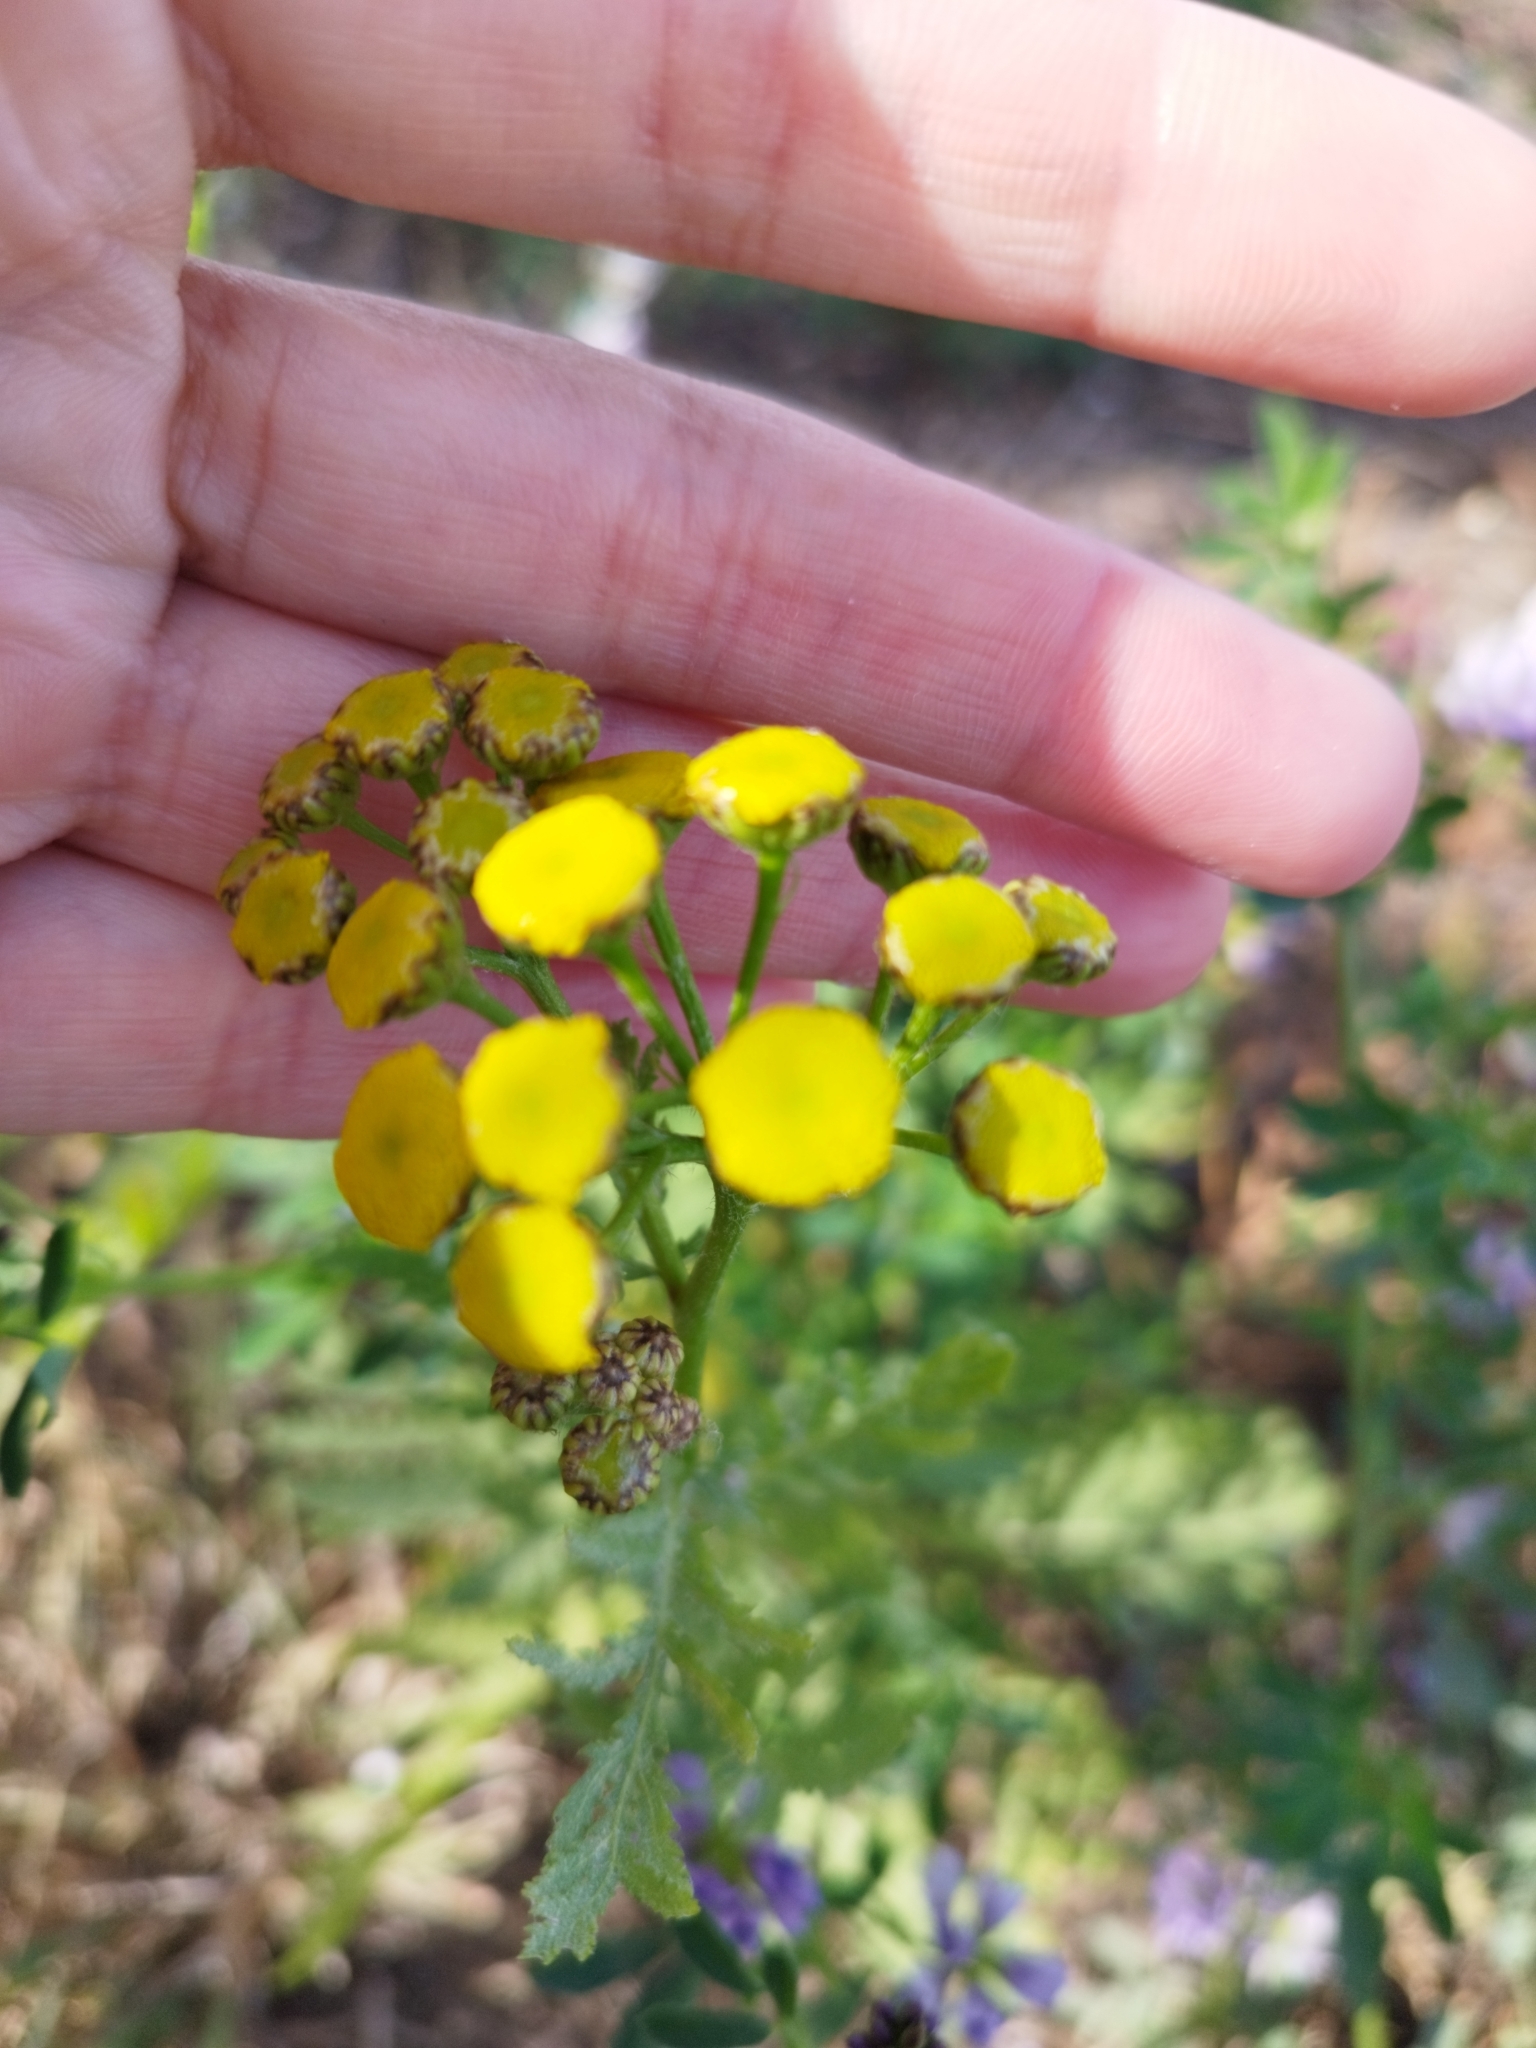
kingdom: Plantae
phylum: Tracheophyta
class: Magnoliopsida
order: Asterales
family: Asteraceae
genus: Tanacetum
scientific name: Tanacetum vulgare
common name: Common tansy
